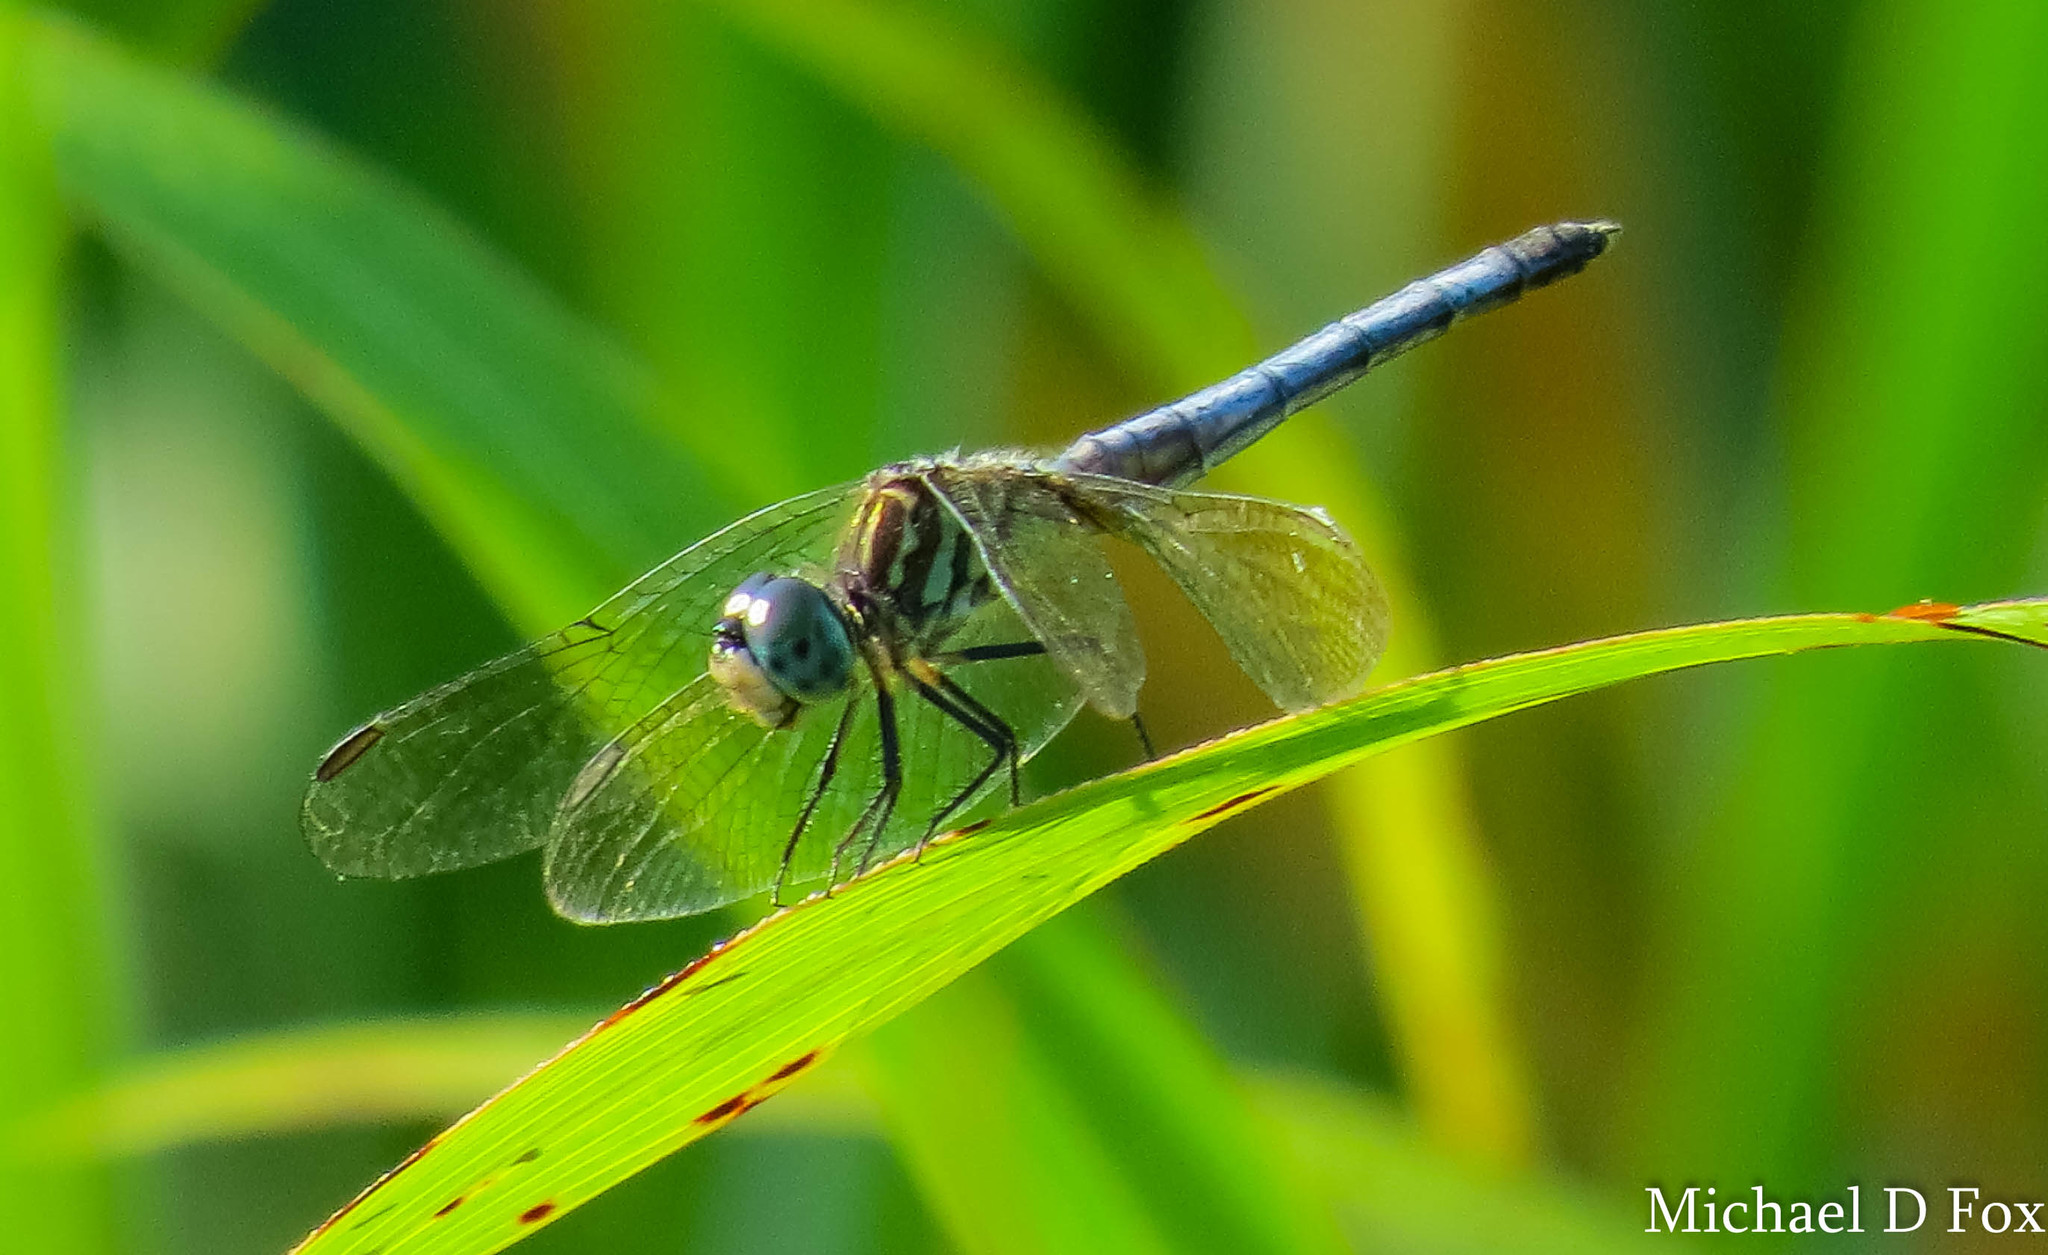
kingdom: Animalia
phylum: Arthropoda
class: Insecta
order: Odonata
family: Libellulidae
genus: Pachydiplax
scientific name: Pachydiplax longipennis
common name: Blue dasher
